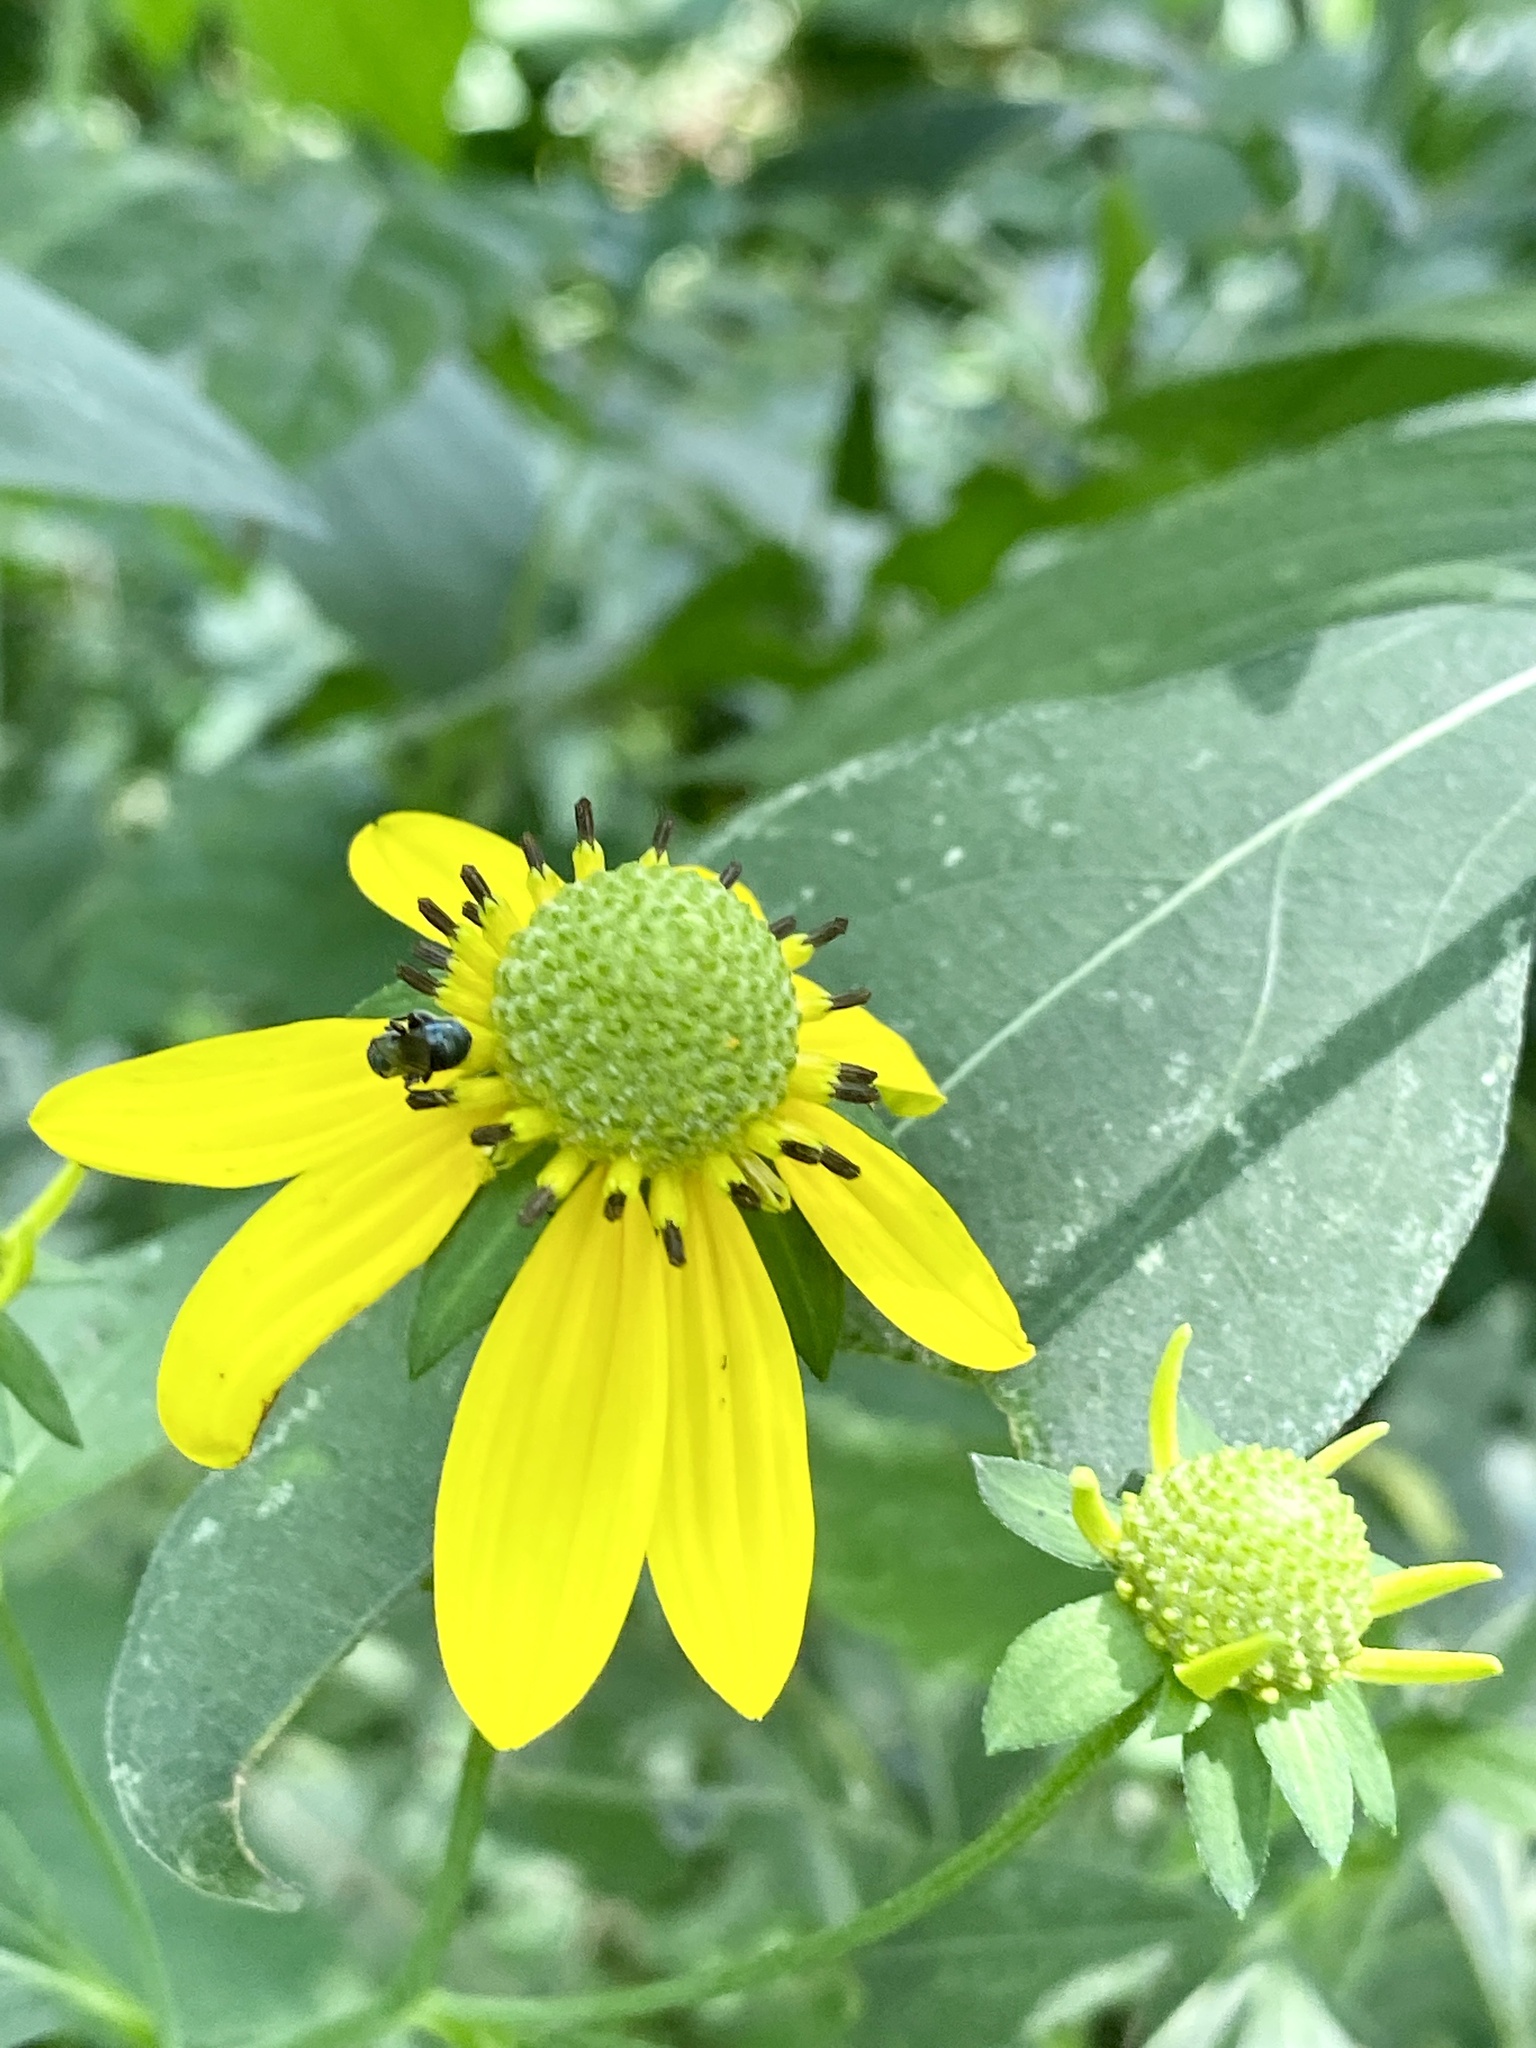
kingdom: Plantae
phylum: Tracheophyta
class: Magnoliopsida
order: Asterales
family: Asteraceae
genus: Rudbeckia
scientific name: Rudbeckia laciniata
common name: Coneflower
